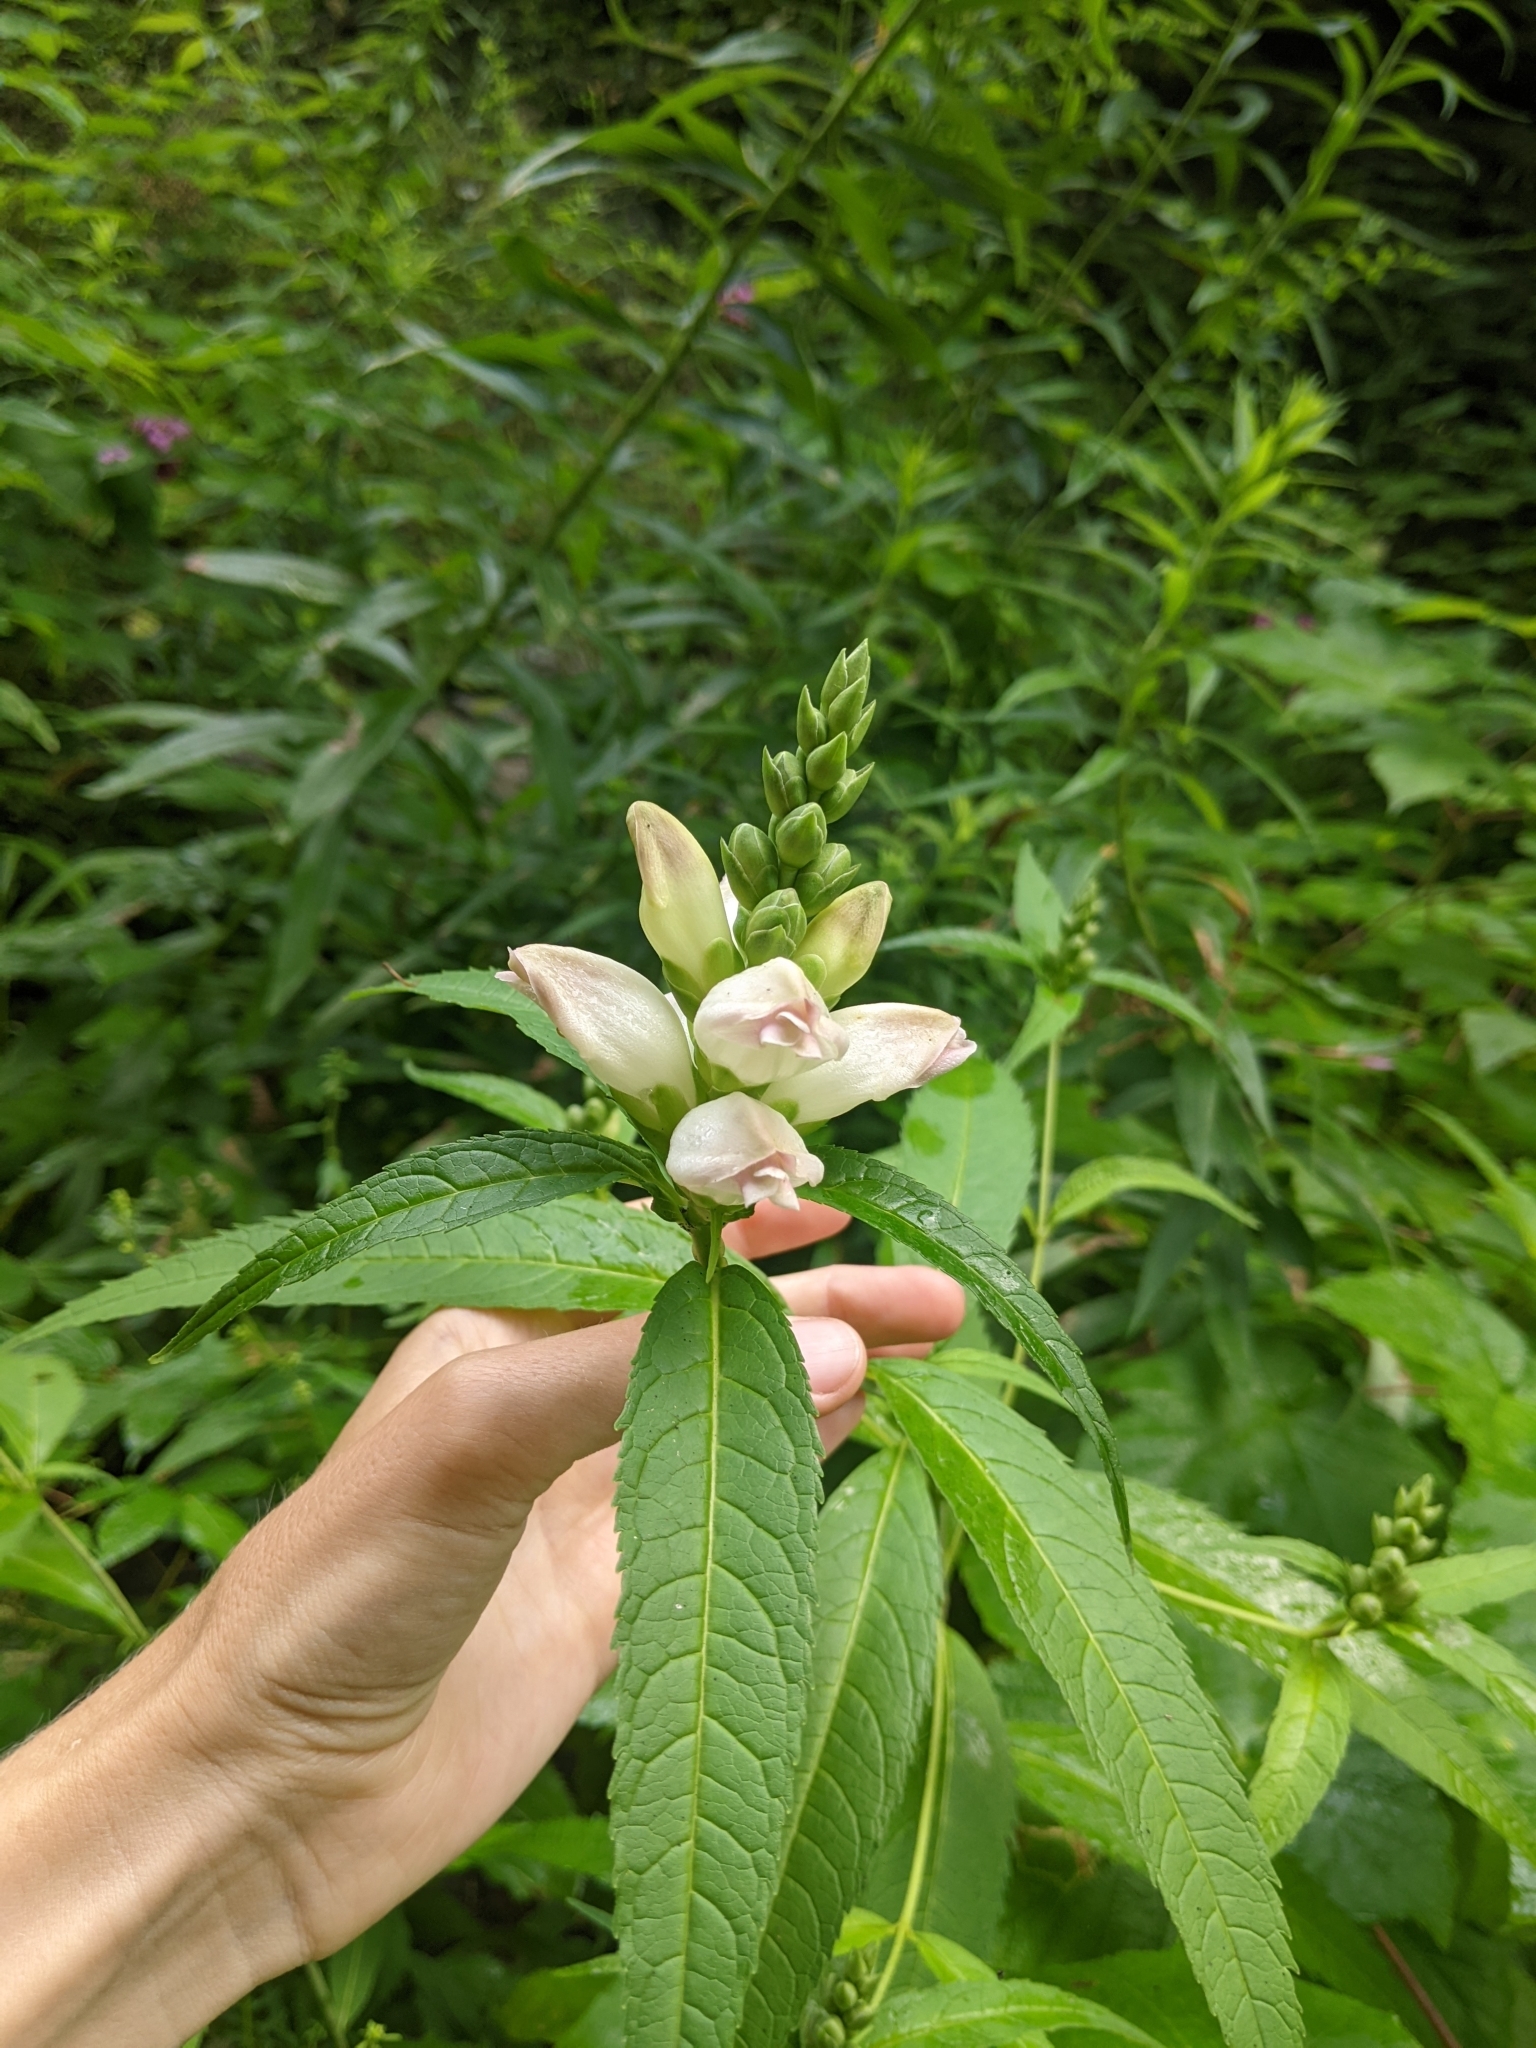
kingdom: Plantae
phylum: Tracheophyta
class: Magnoliopsida
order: Lamiales
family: Plantaginaceae
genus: Chelone
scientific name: Chelone glabra
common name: Snakehead
